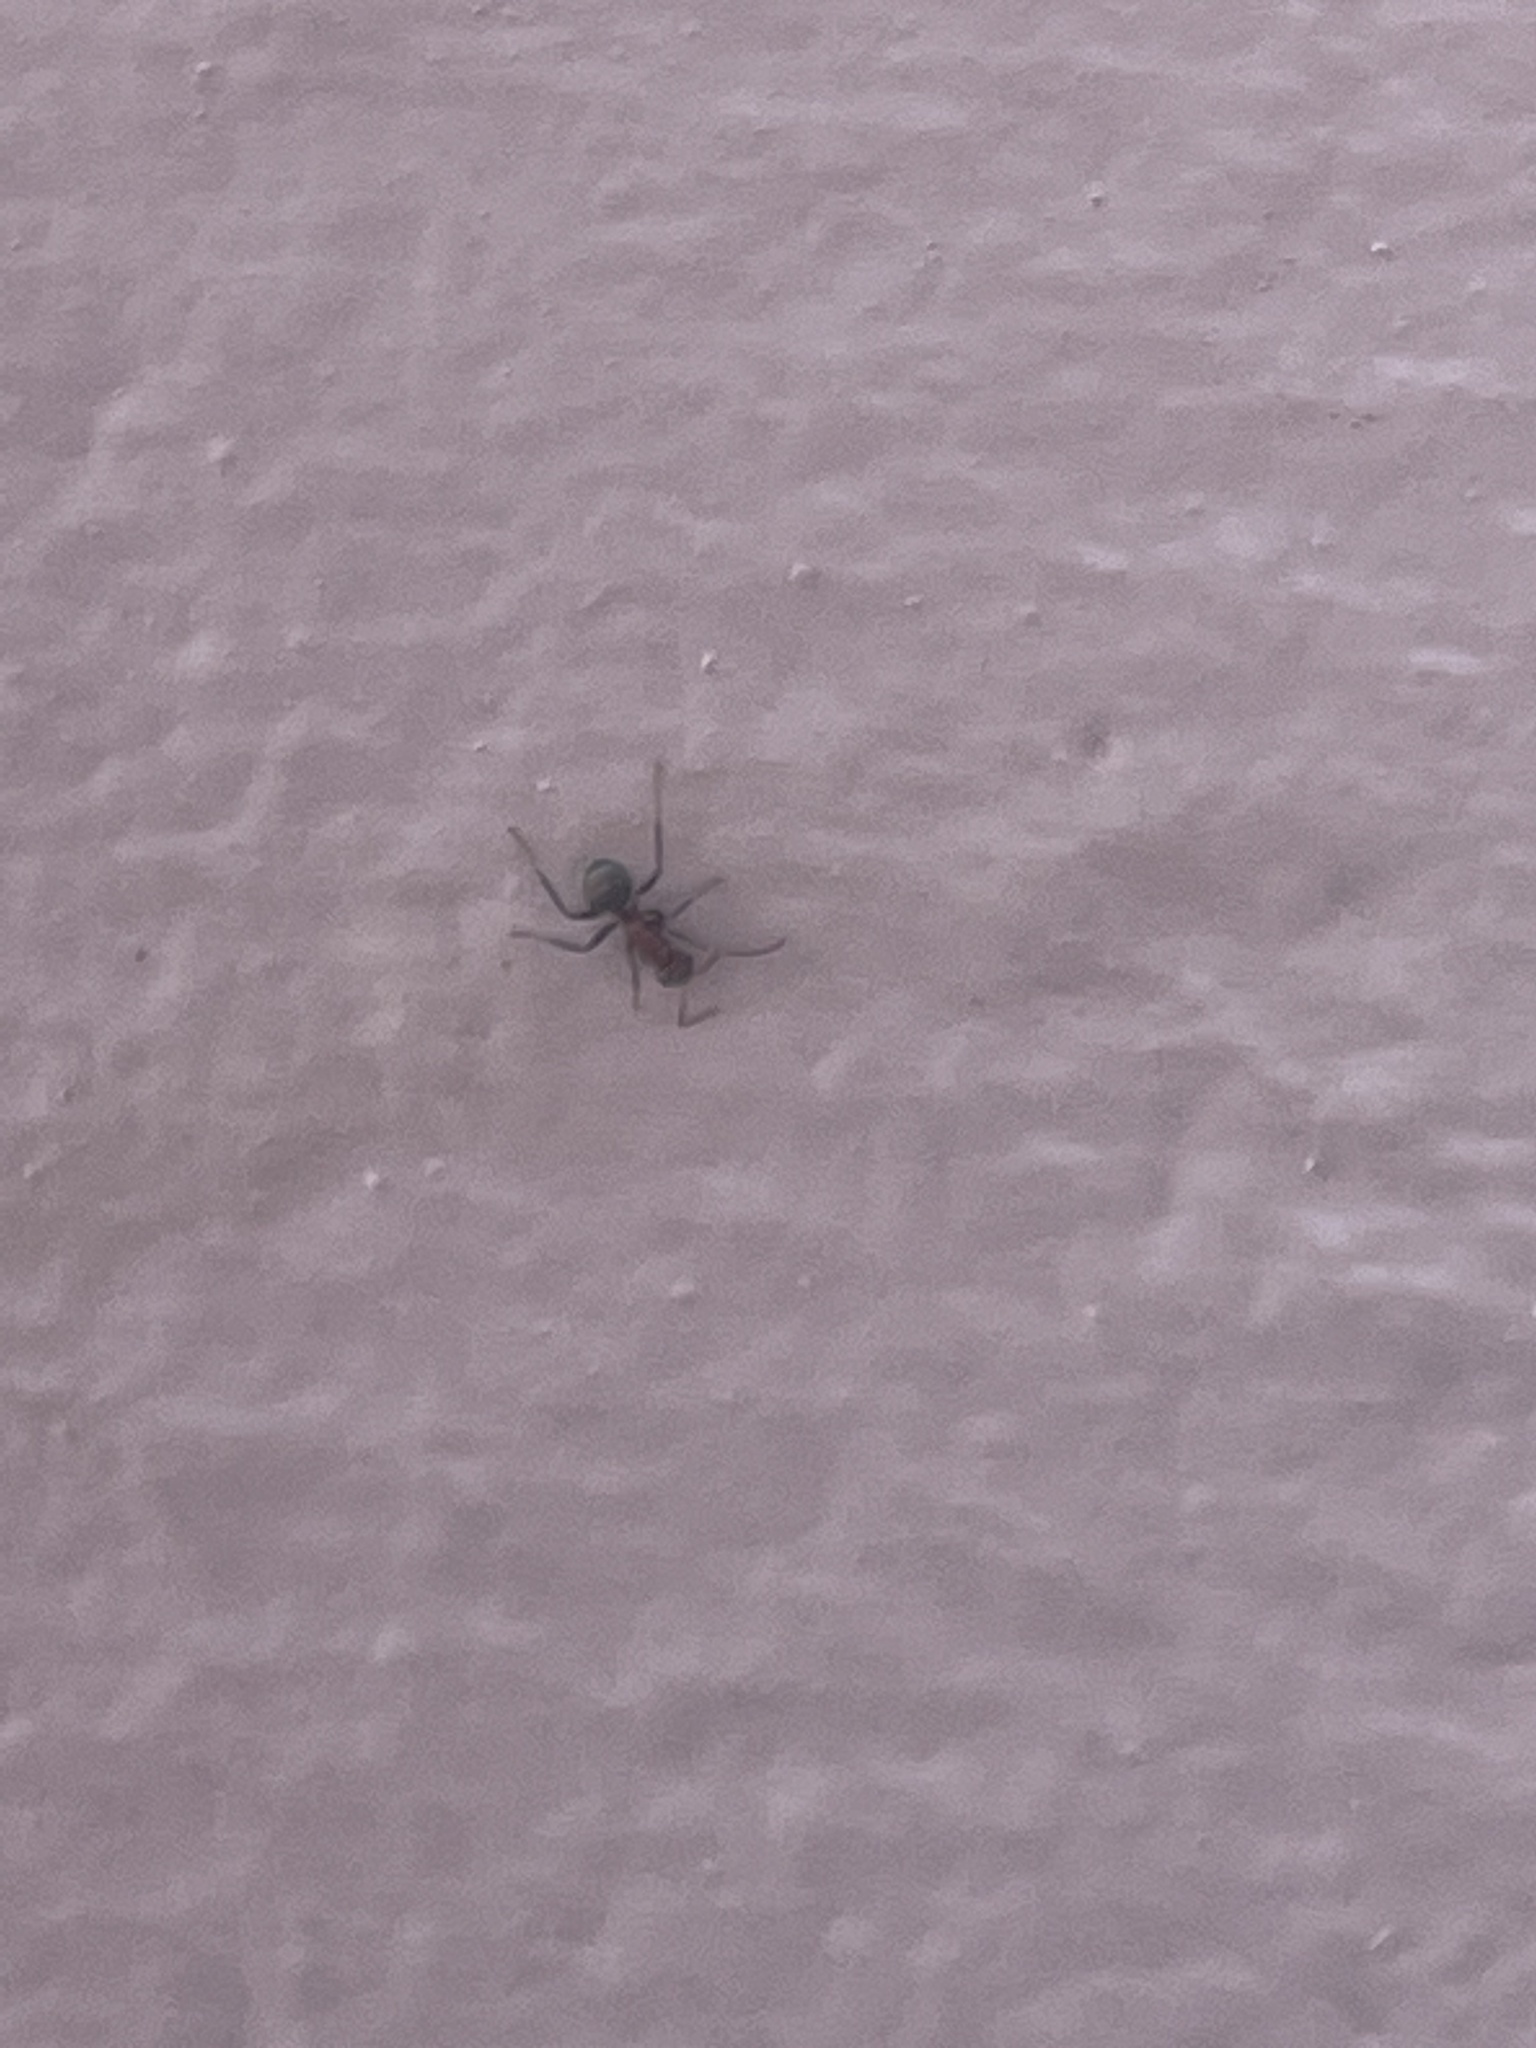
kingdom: Animalia
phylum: Arthropoda
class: Insecta
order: Hymenoptera
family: Formicidae
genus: Camponotus
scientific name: Camponotus planatus
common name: Compact carpenter ant
